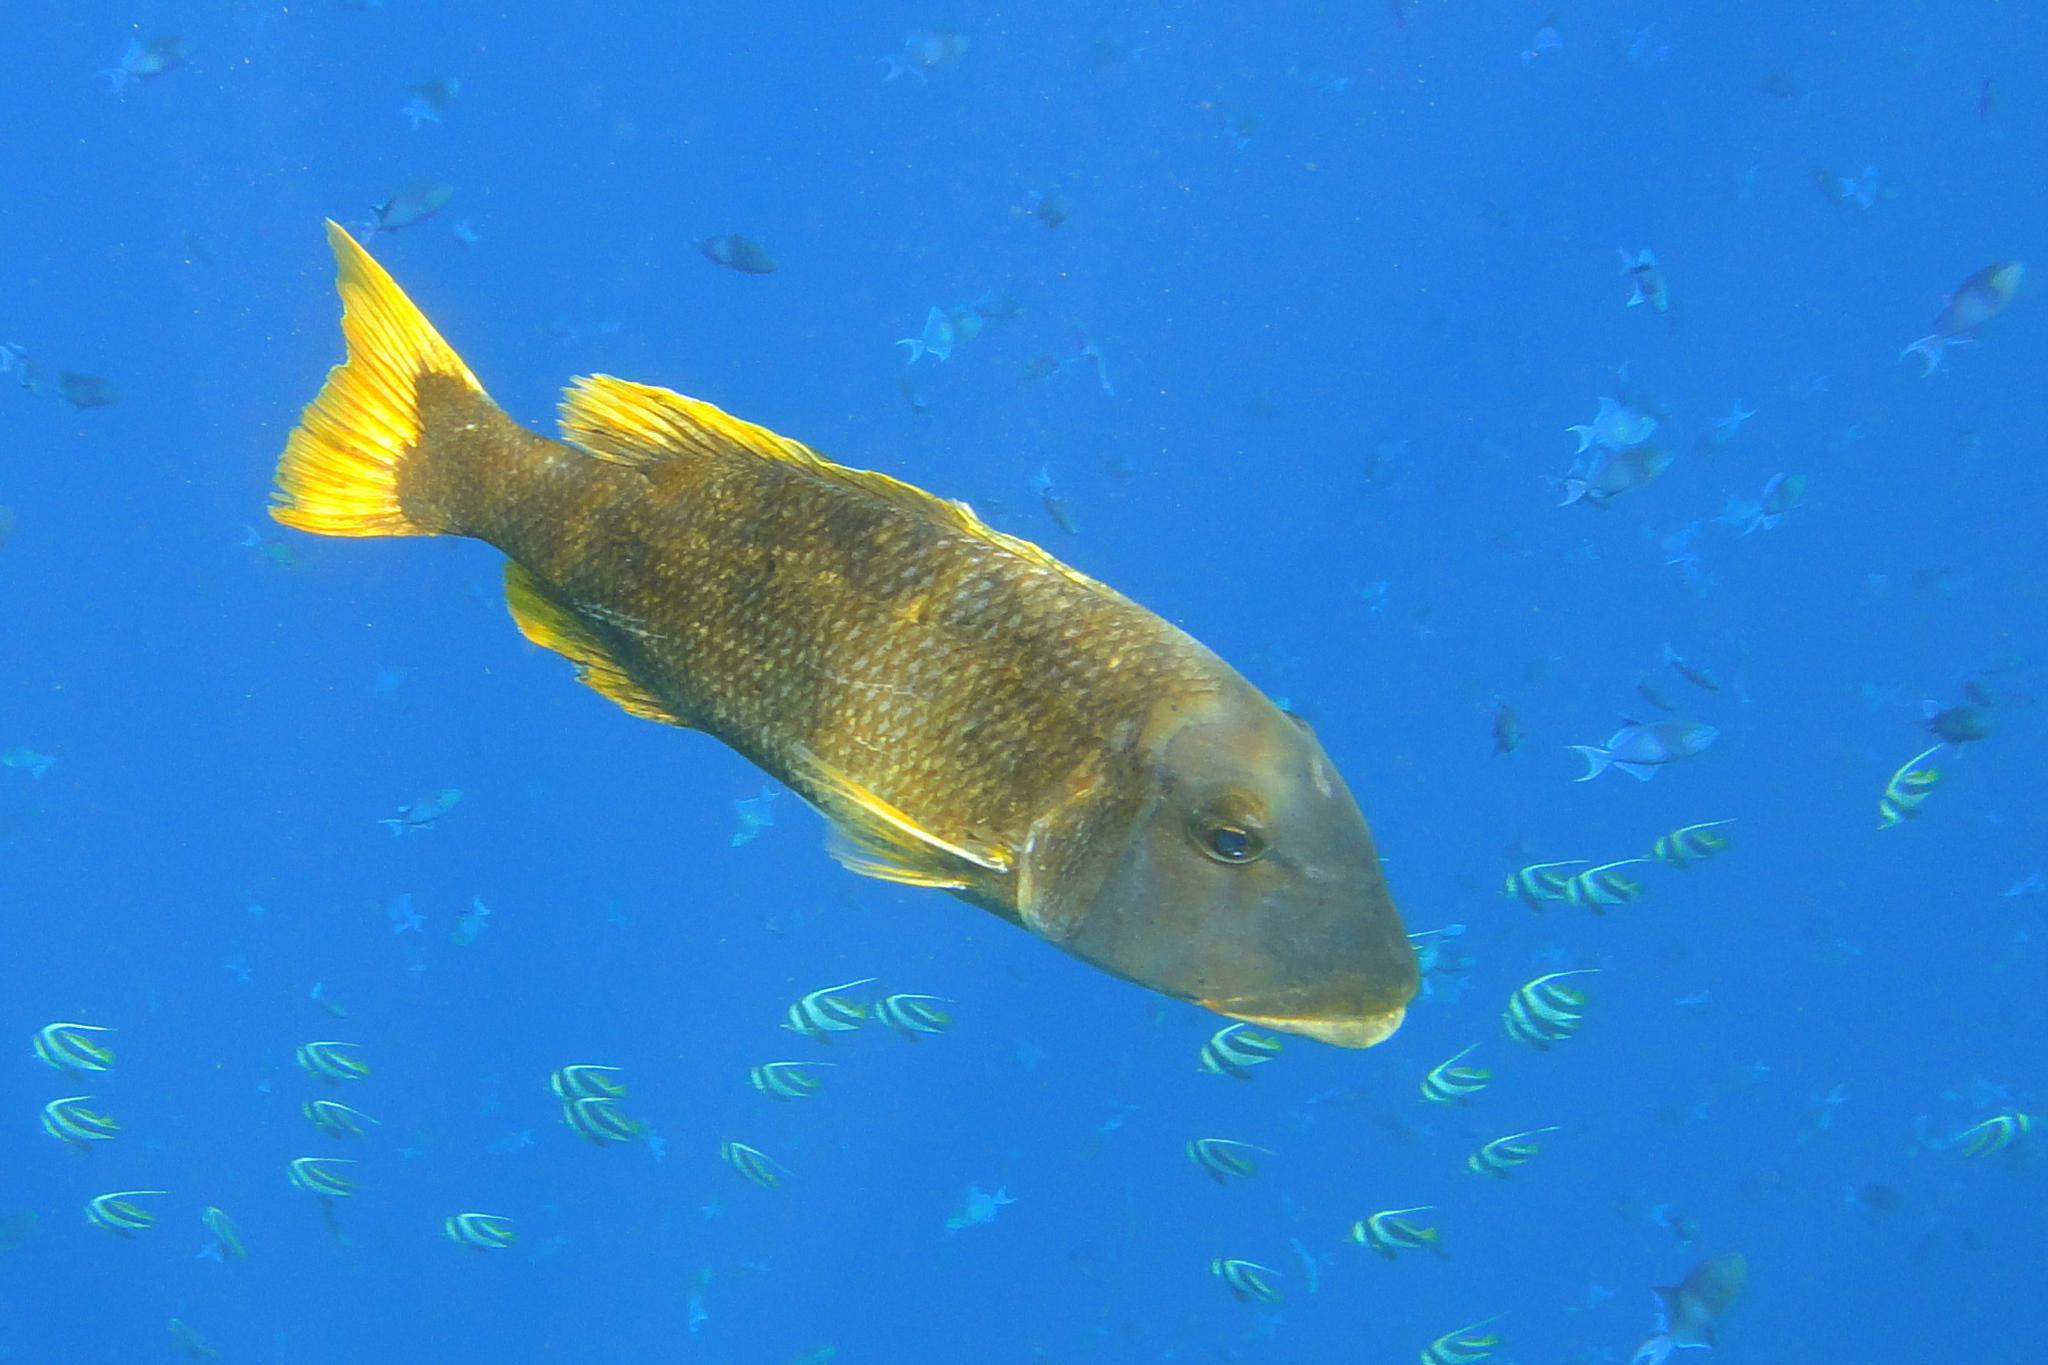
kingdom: Animalia
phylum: Chordata
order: Perciformes
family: Lethrinidae
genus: Lethrinus
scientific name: Lethrinus erythracanthus
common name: Orange-spotted emperor
